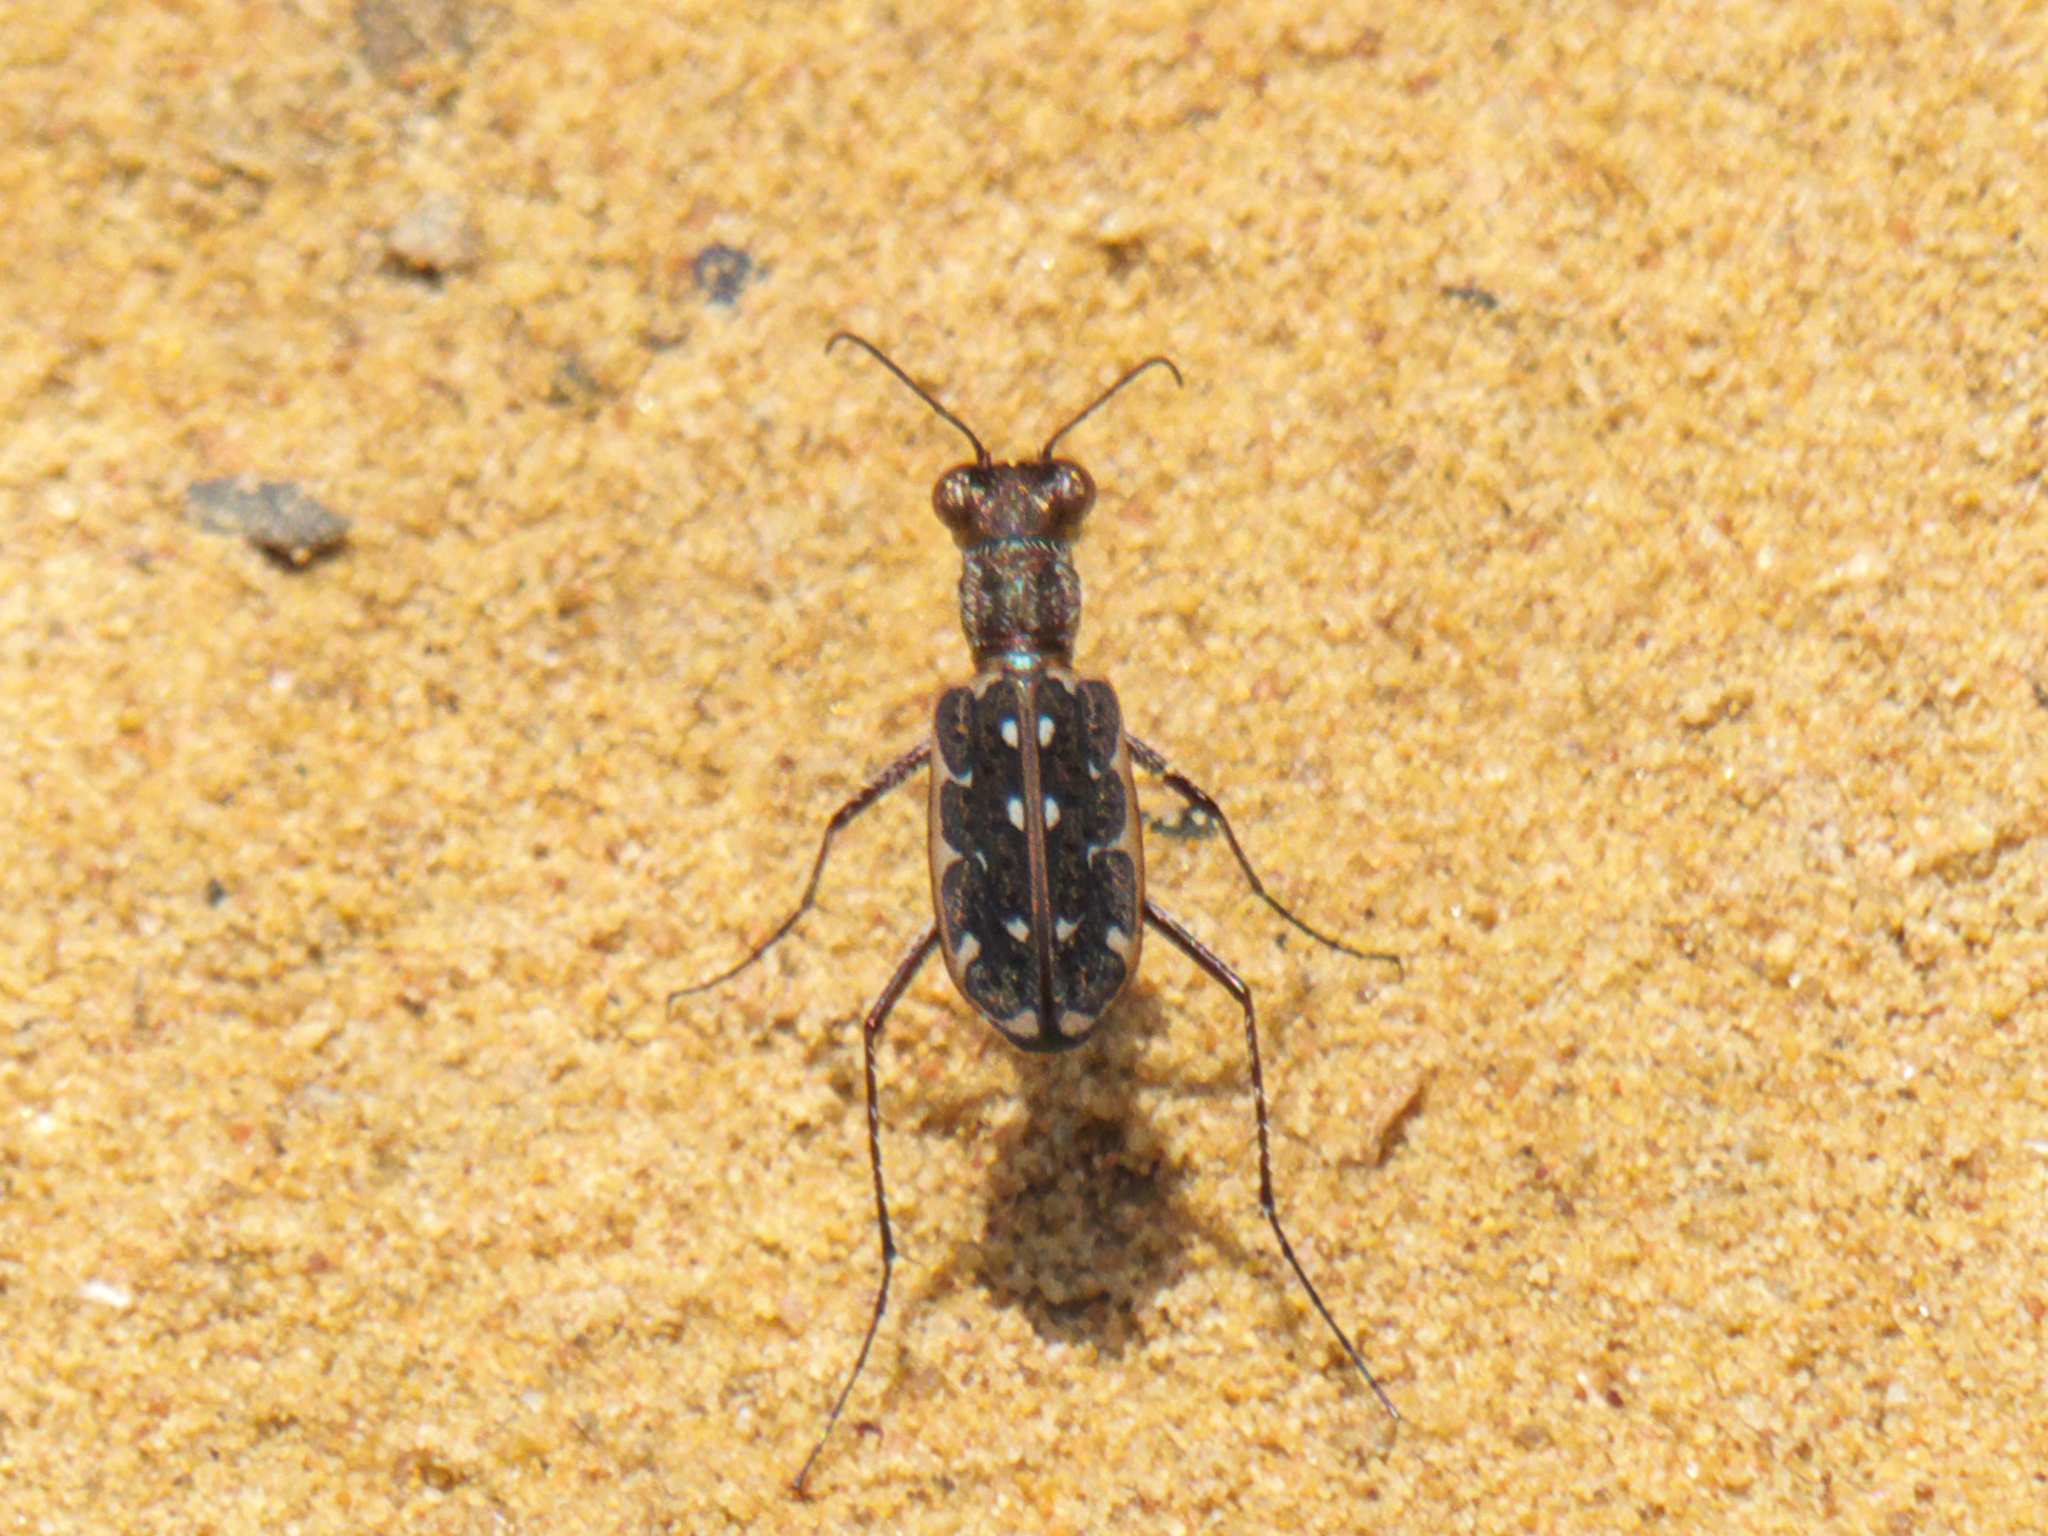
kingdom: Animalia
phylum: Arthropoda
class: Insecta
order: Coleoptera
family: Carabidae
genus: Lophyra
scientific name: Lophyra fuliginosa
